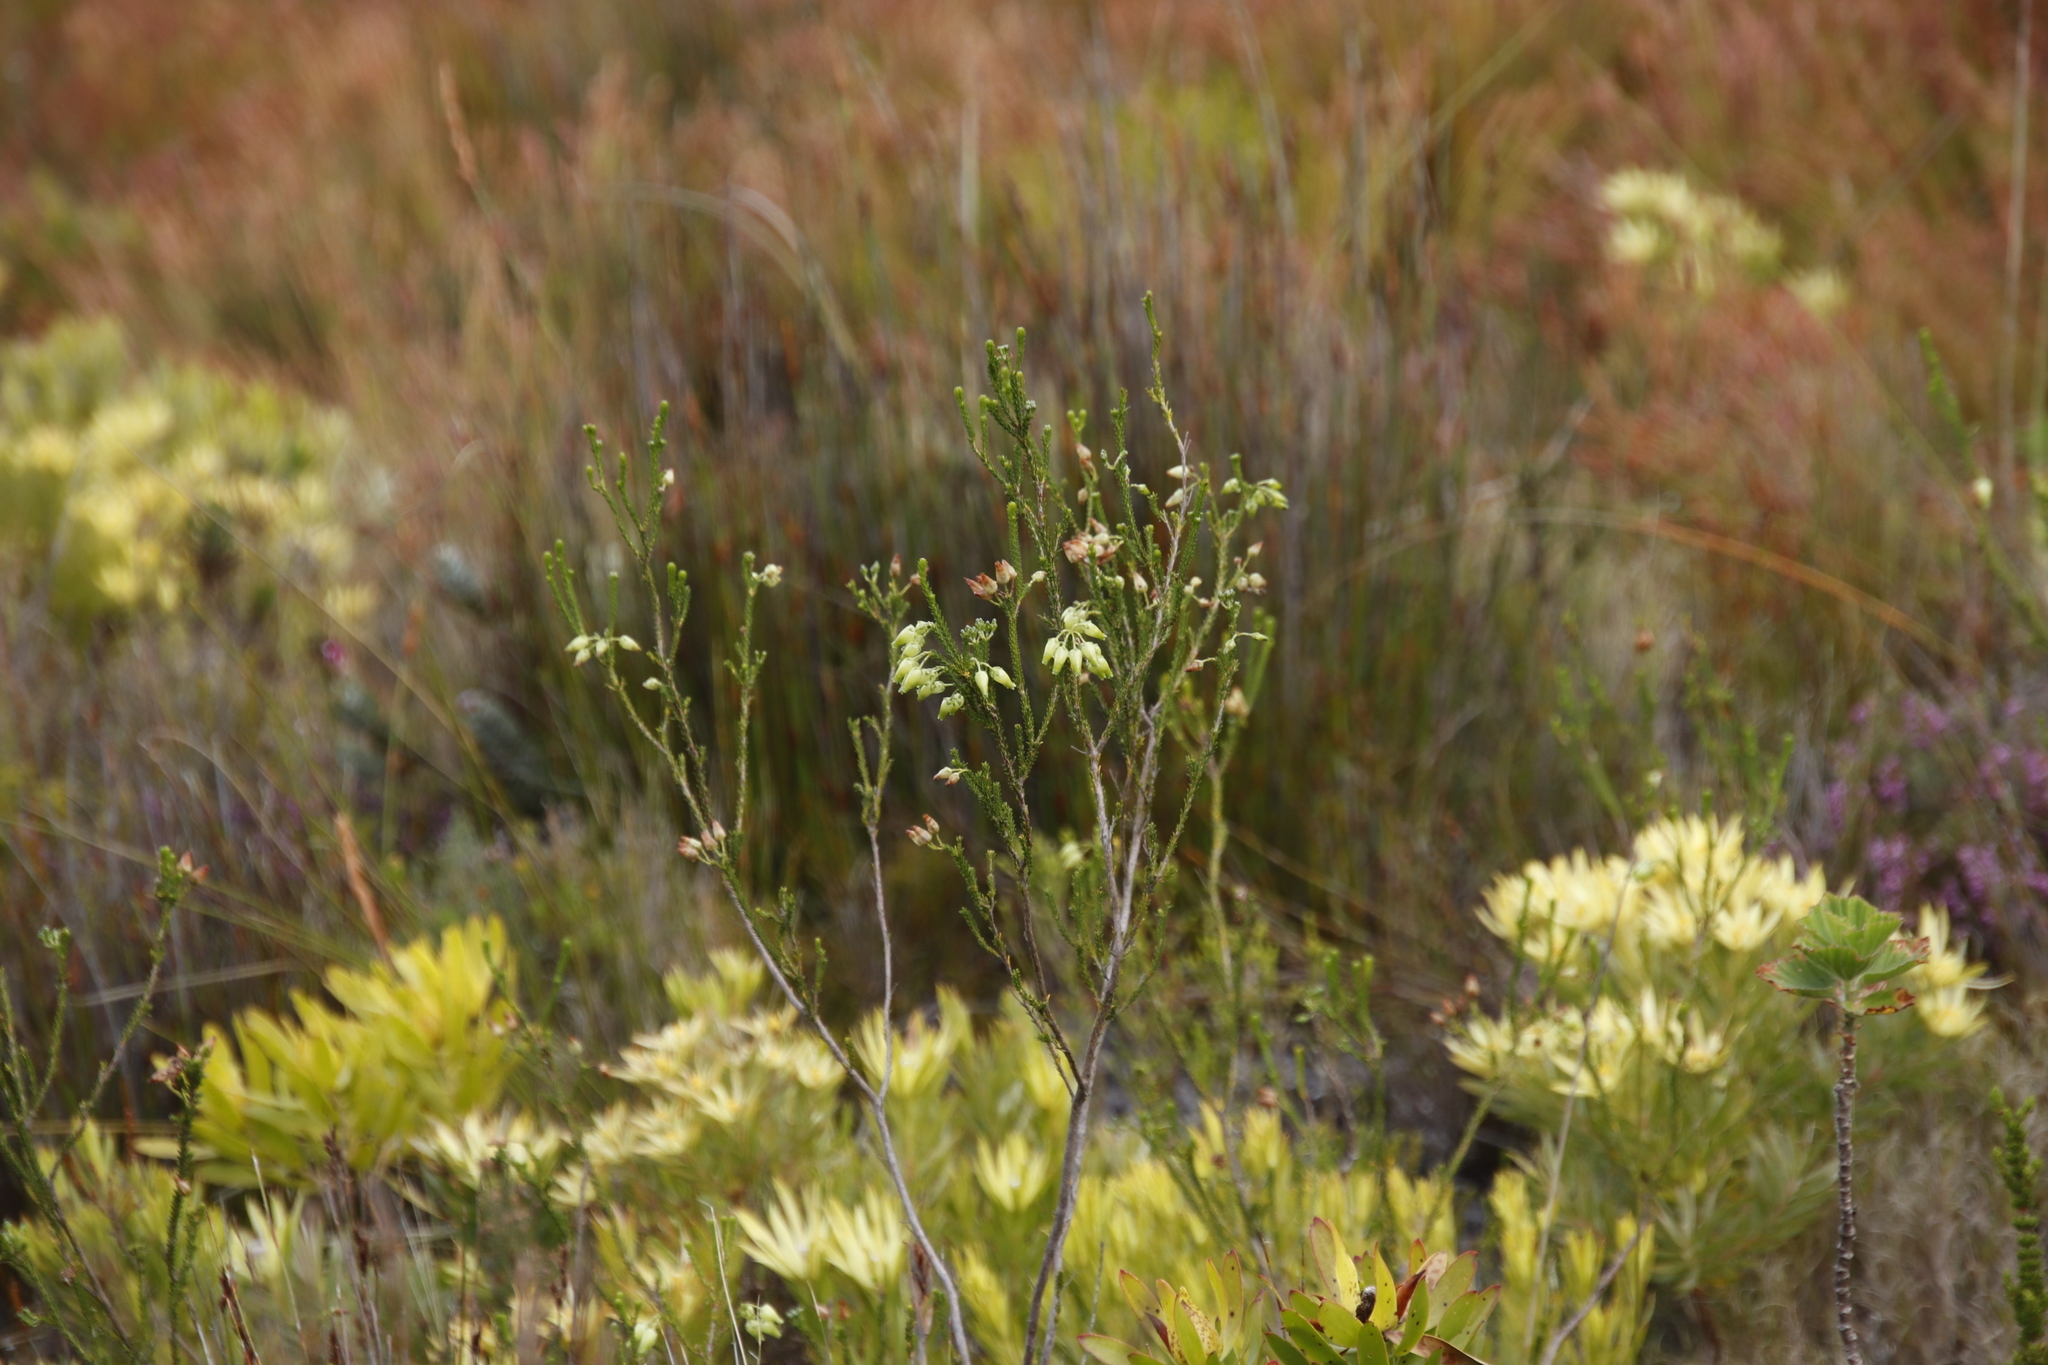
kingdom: Plantae
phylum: Tracheophyta
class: Magnoliopsida
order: Ericales
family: Ericaceae
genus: Erica
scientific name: Erica urna-viridis
